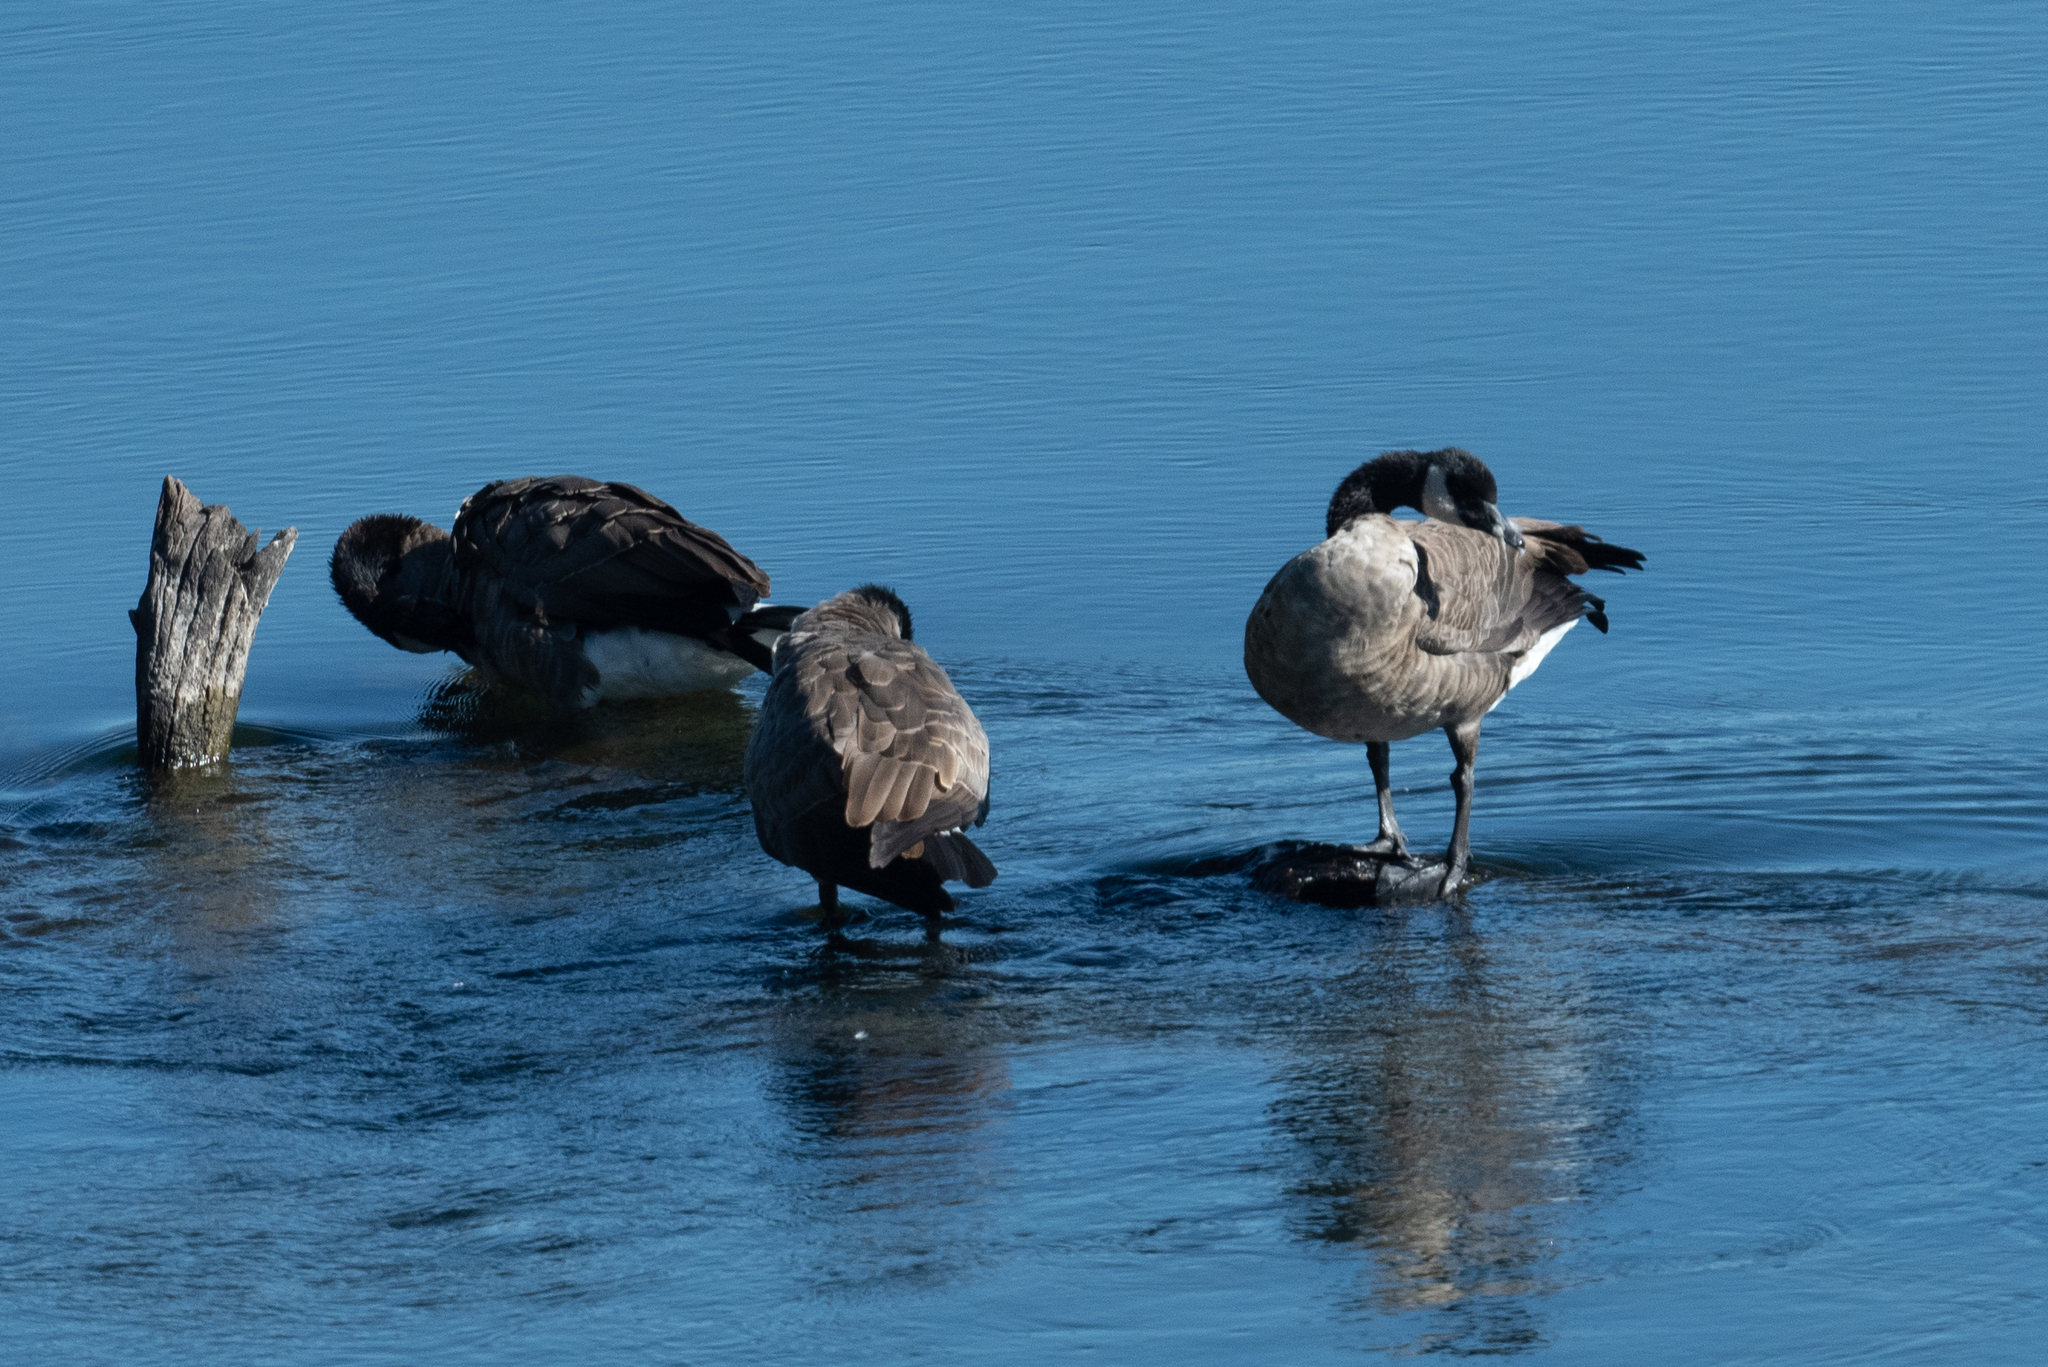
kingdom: Animalia
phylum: Chordata
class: Aves
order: Anseriformes
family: Anatidae
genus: Branta
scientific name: Branta canadensis
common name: Canada goose
